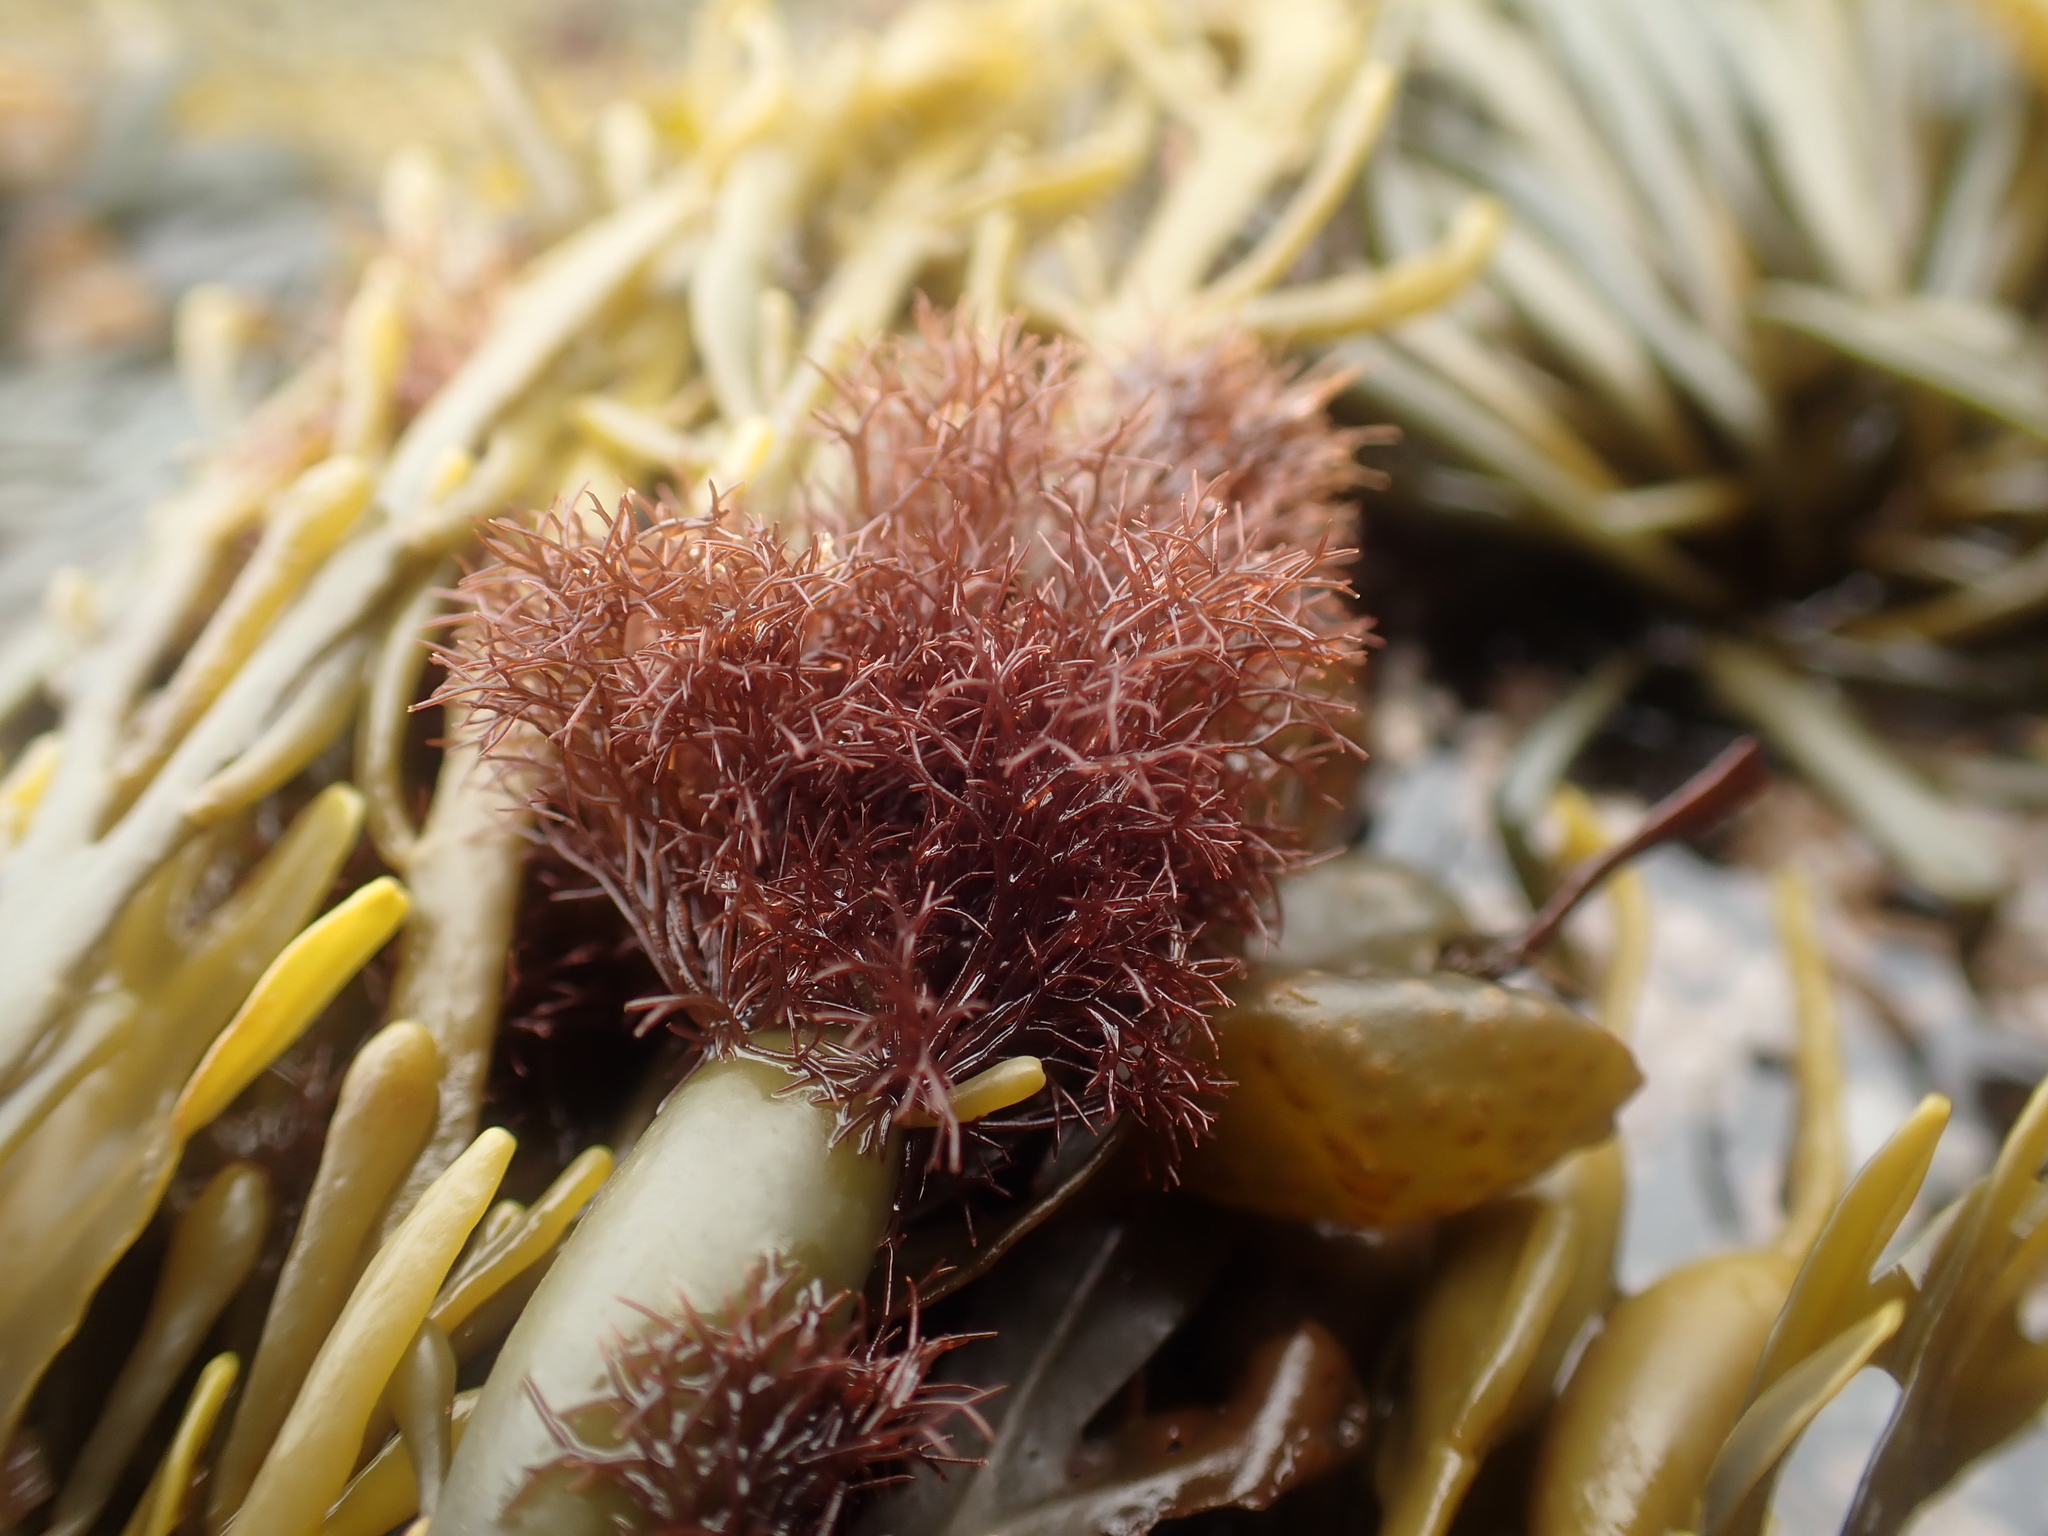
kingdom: Plantae
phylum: Rhodophyta
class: Florideophyceae
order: Ceramiales
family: Rhodomelaceae
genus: Vertebrata
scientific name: Vertebrata lanosa
